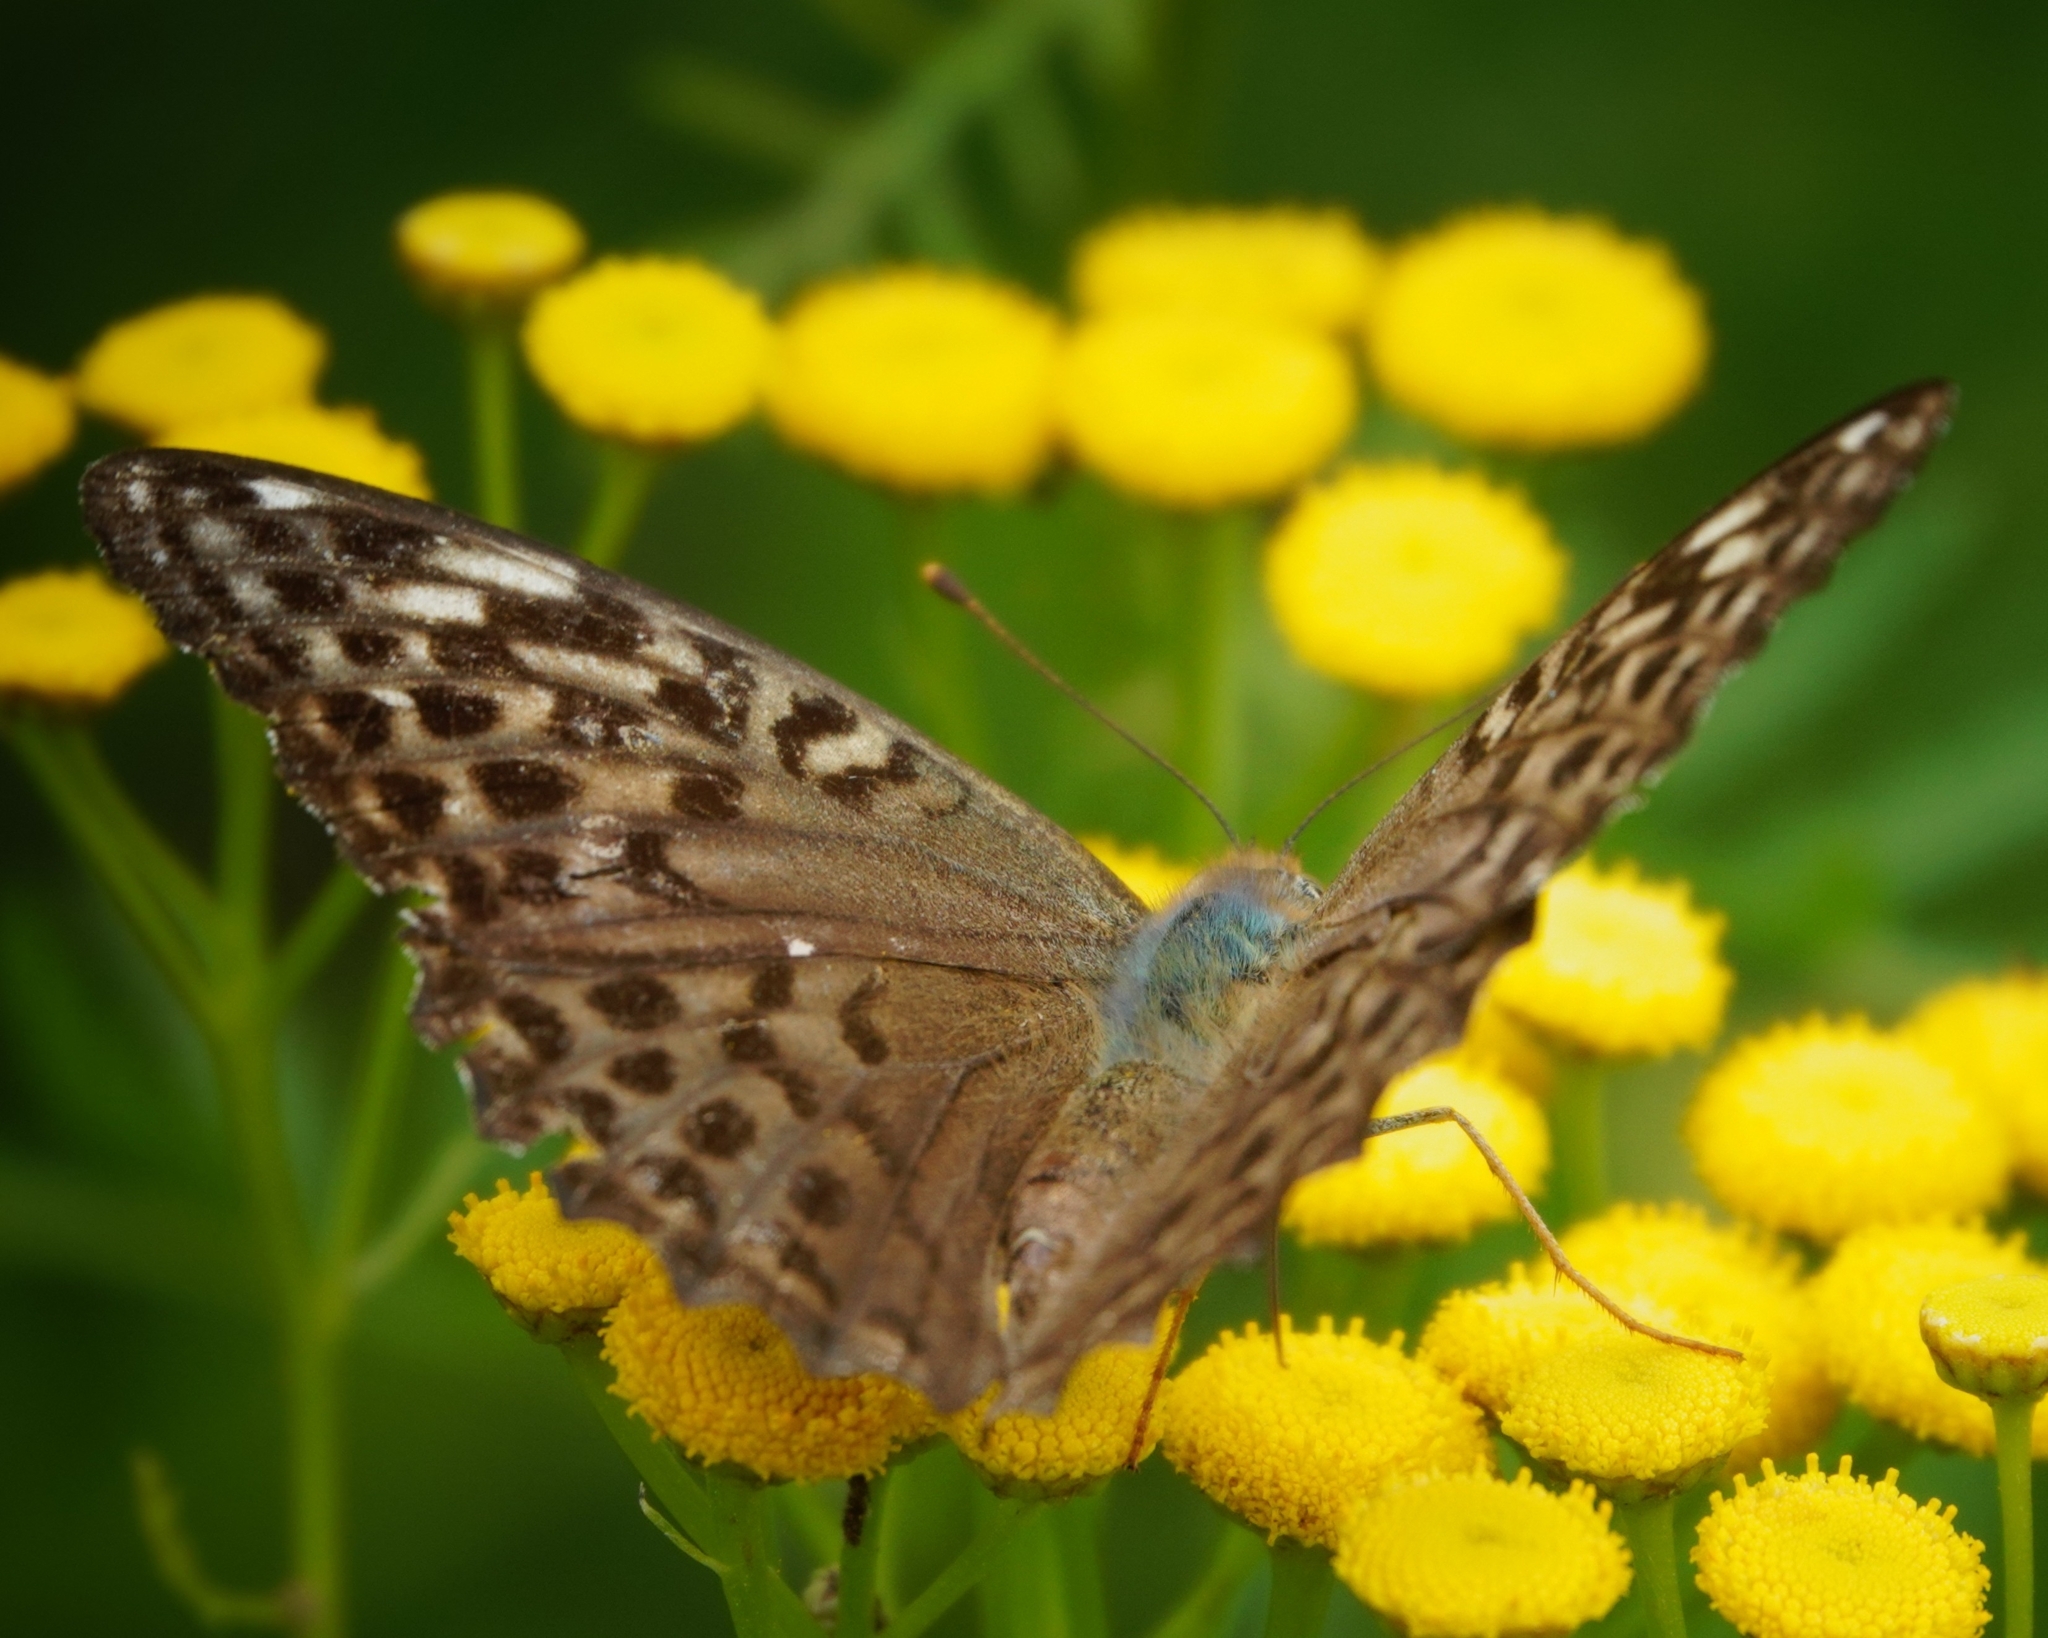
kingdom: Animalia
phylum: Arthropoda
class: Insecta
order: Lepidoptera
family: Nymphalidae
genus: Argynnis
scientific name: Argynnis paphia
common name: Silver-washed fritillary
